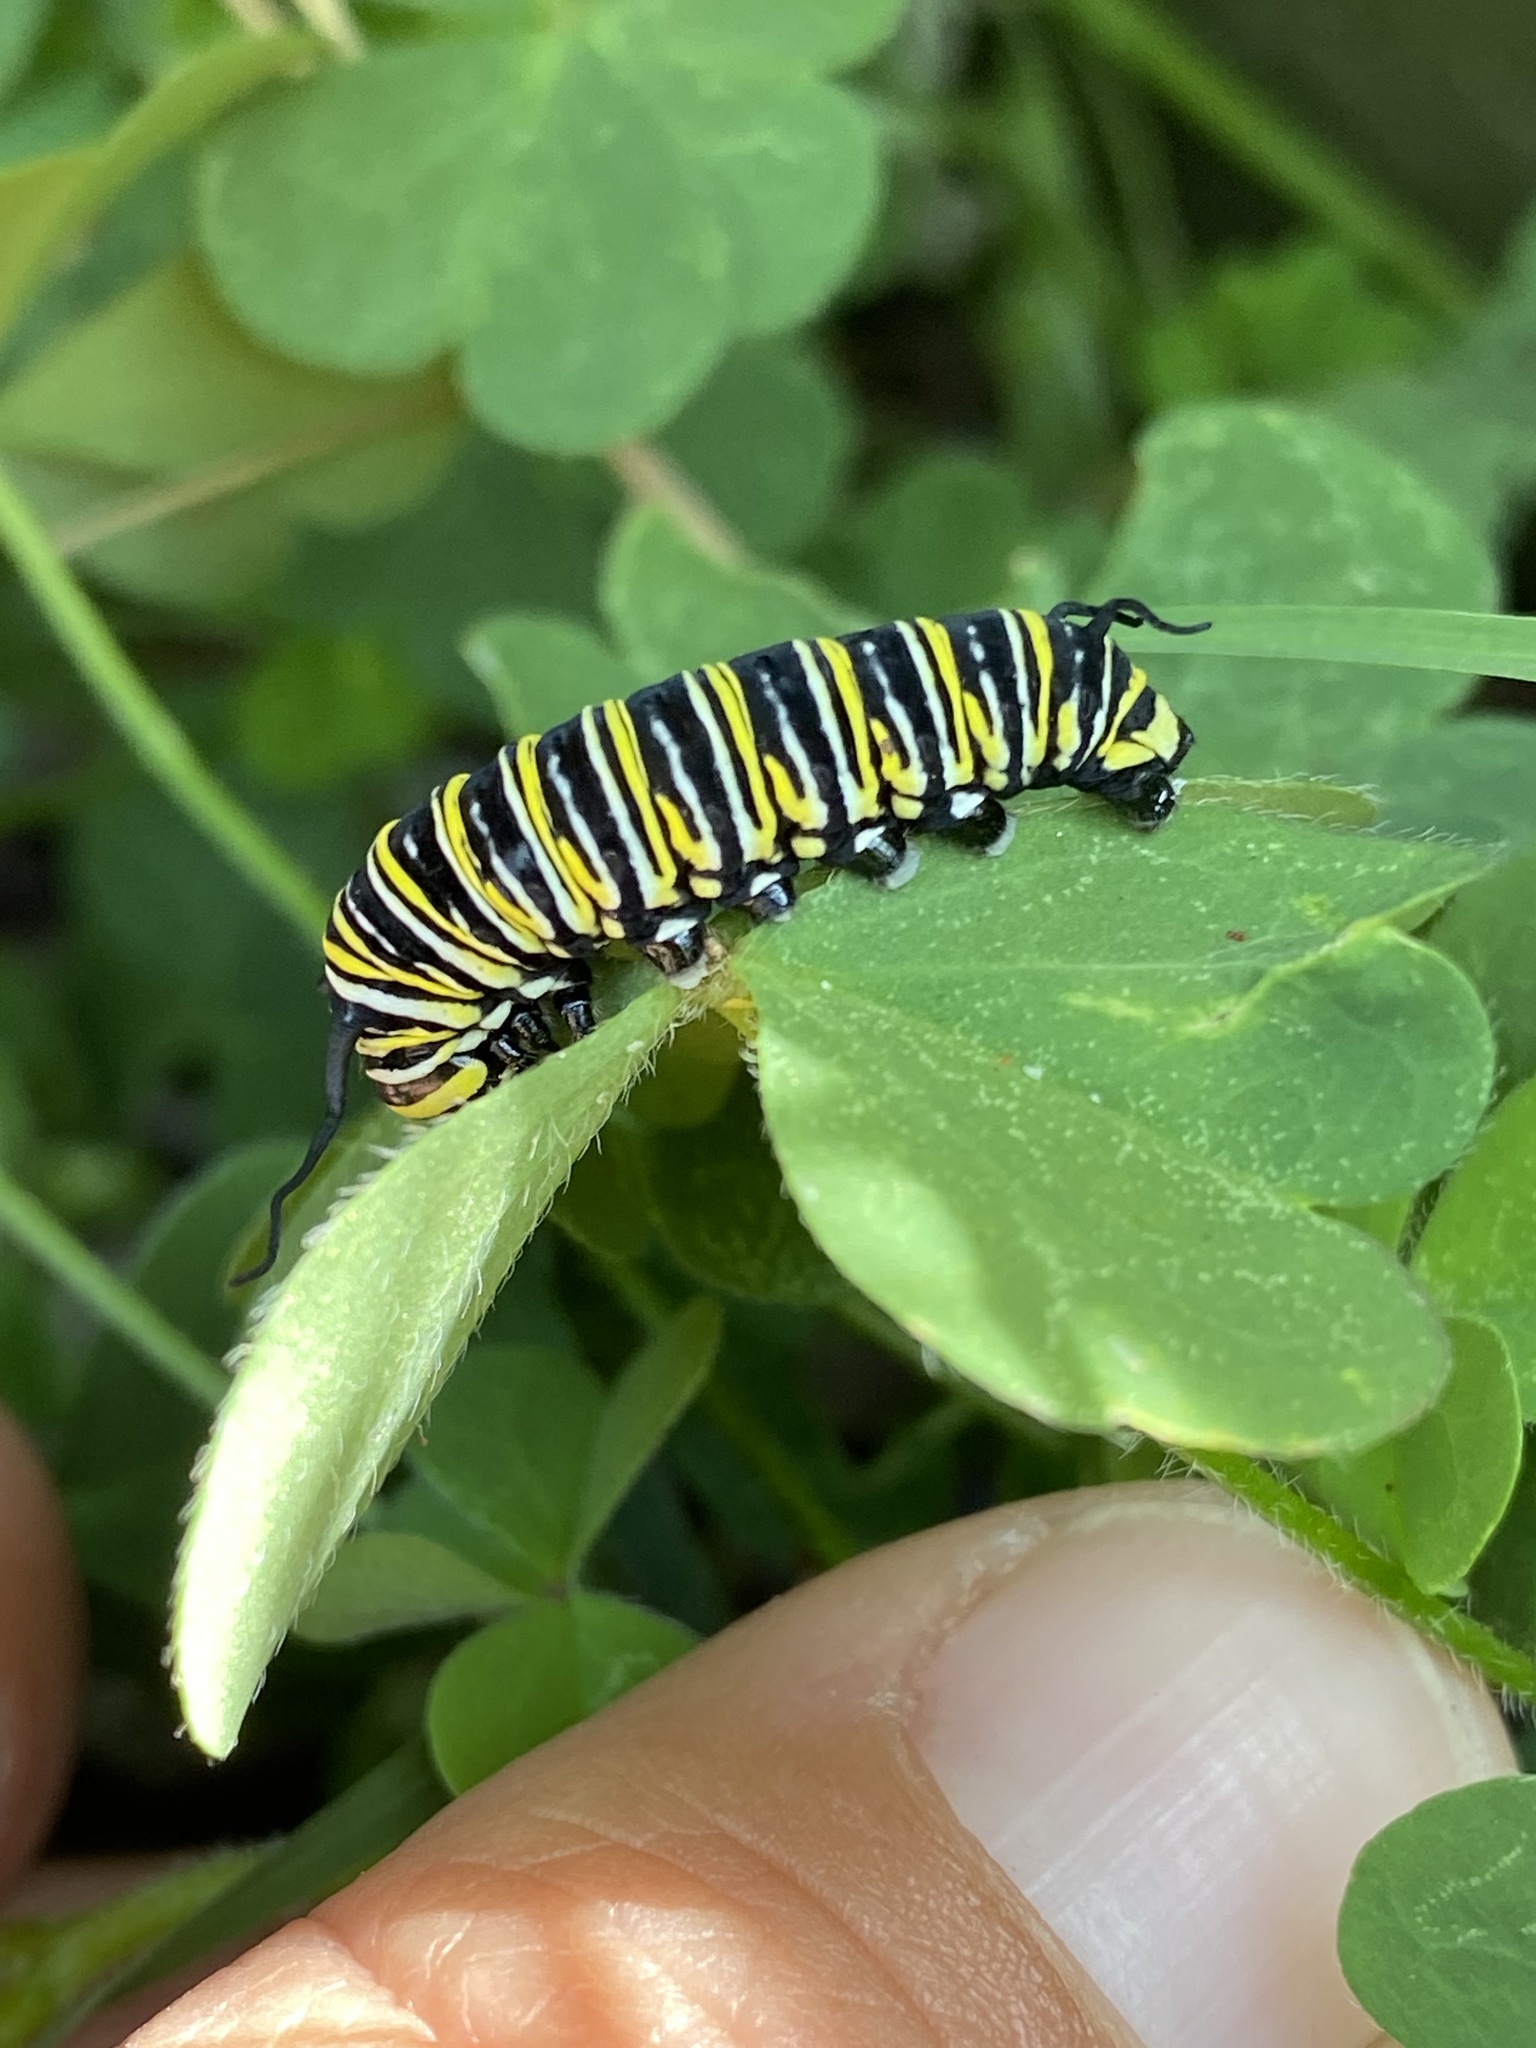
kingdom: Animalia
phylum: Arthropoda
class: Insecta
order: Lepidoptera
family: Nymphalidae
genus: Danaus
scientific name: Danaus plexippus
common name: Monarch
